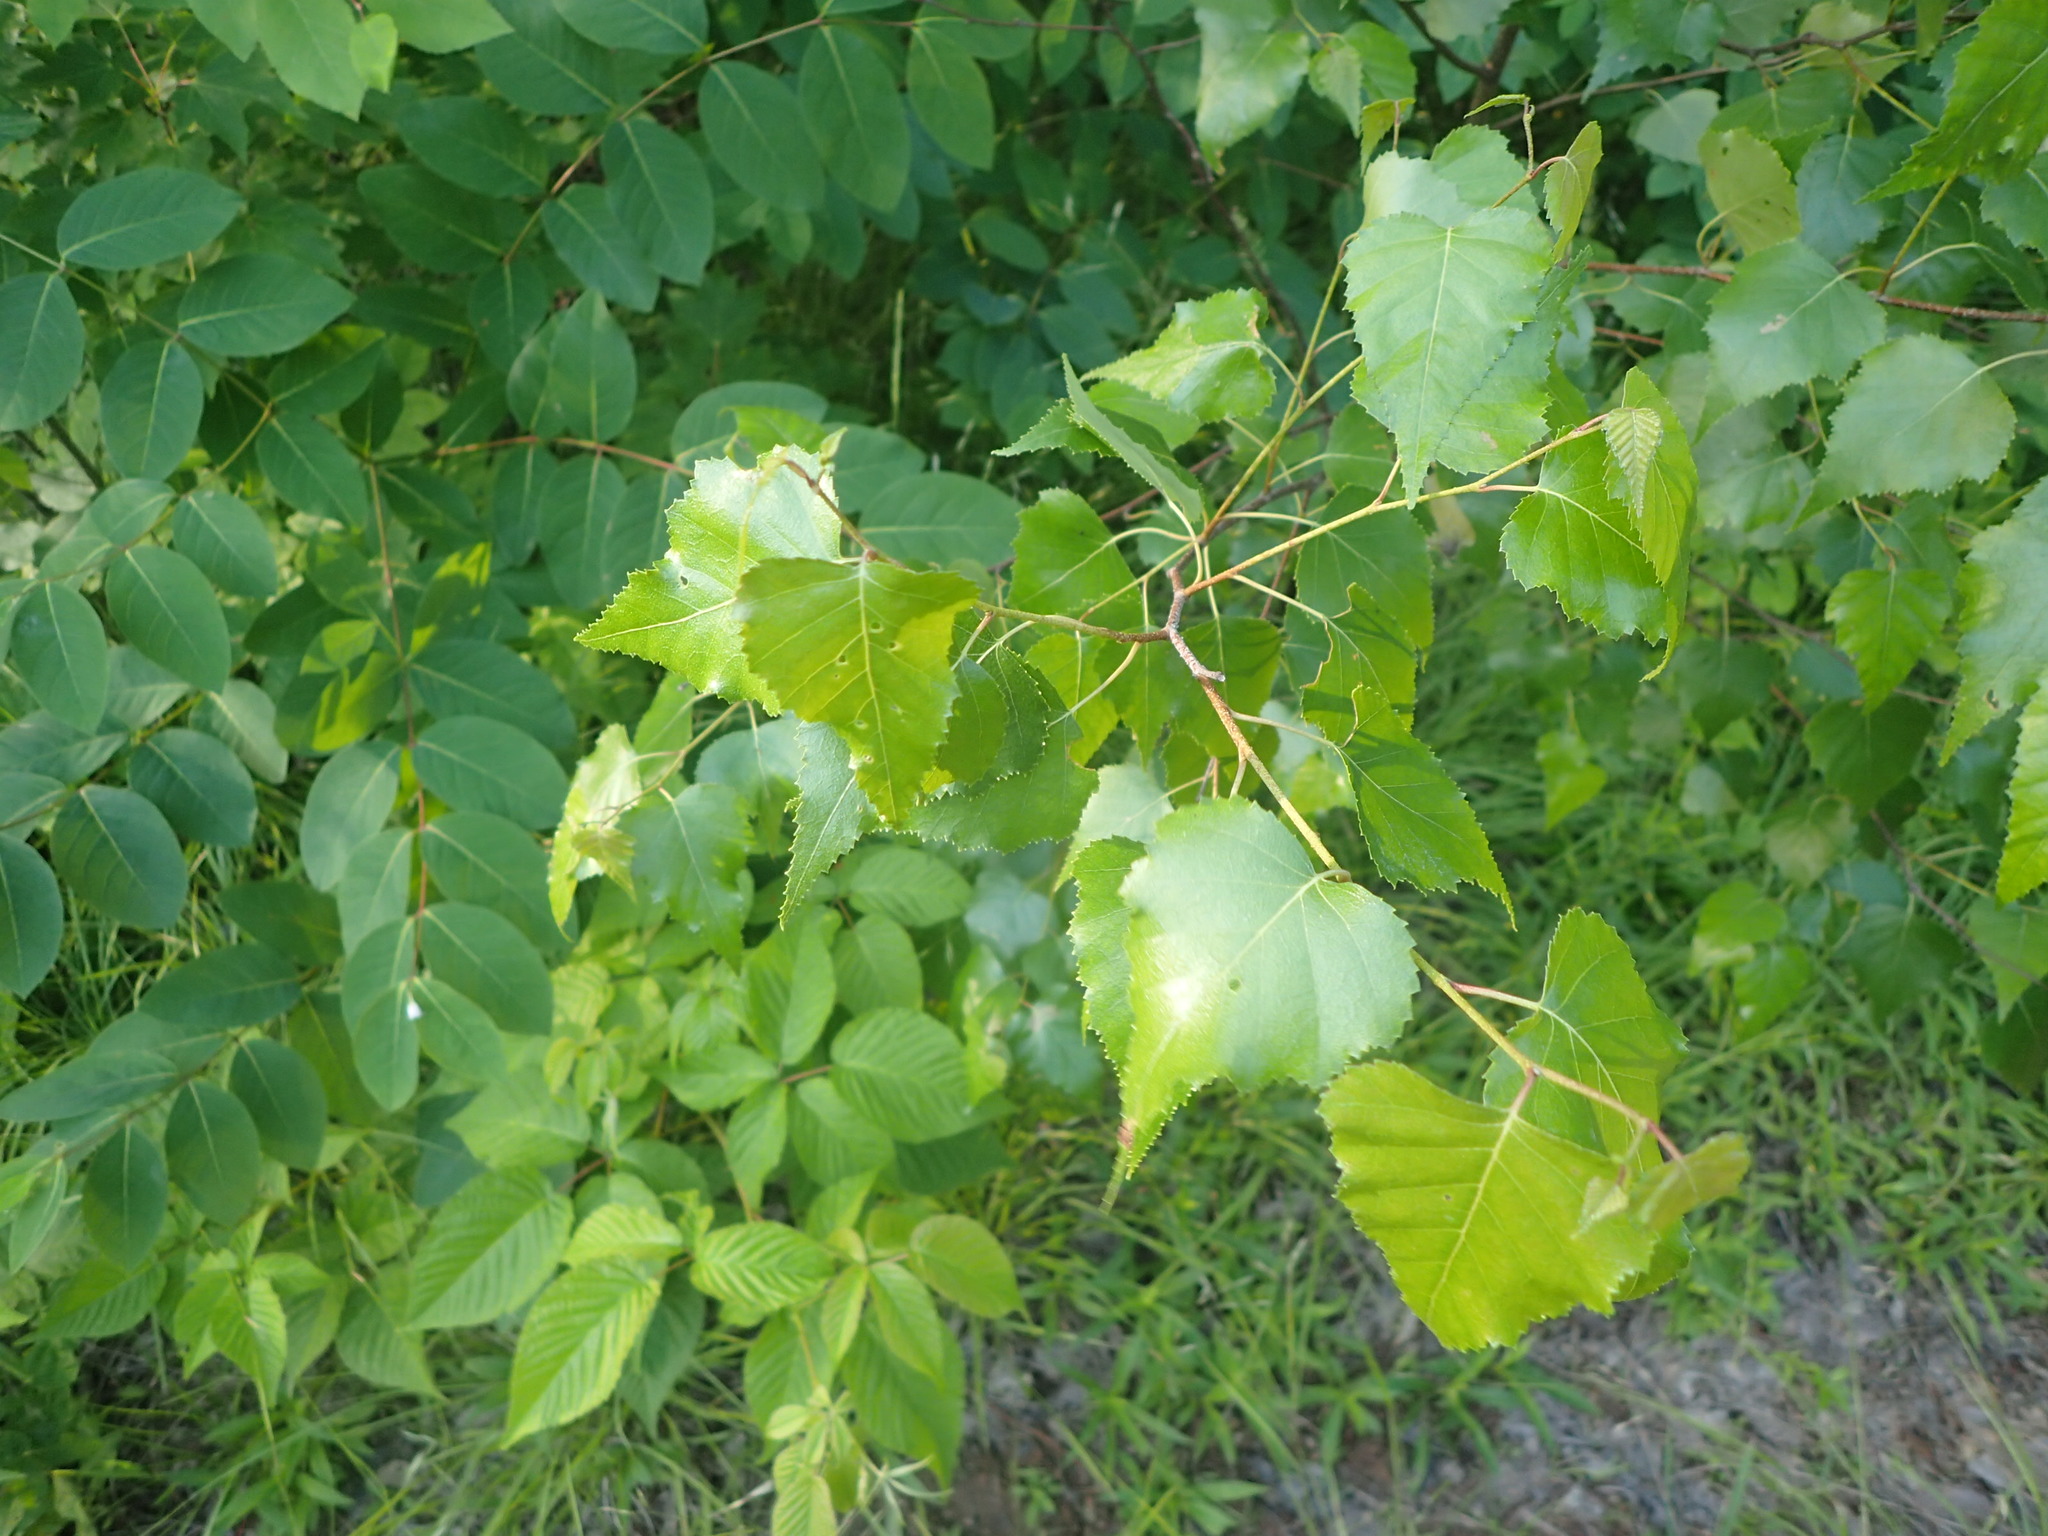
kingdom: Plantae
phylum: Tracheophyta
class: Magnoliopsida
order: Fagales
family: Betulaceae
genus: Betula
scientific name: Betula populifolia
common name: Fire birch
